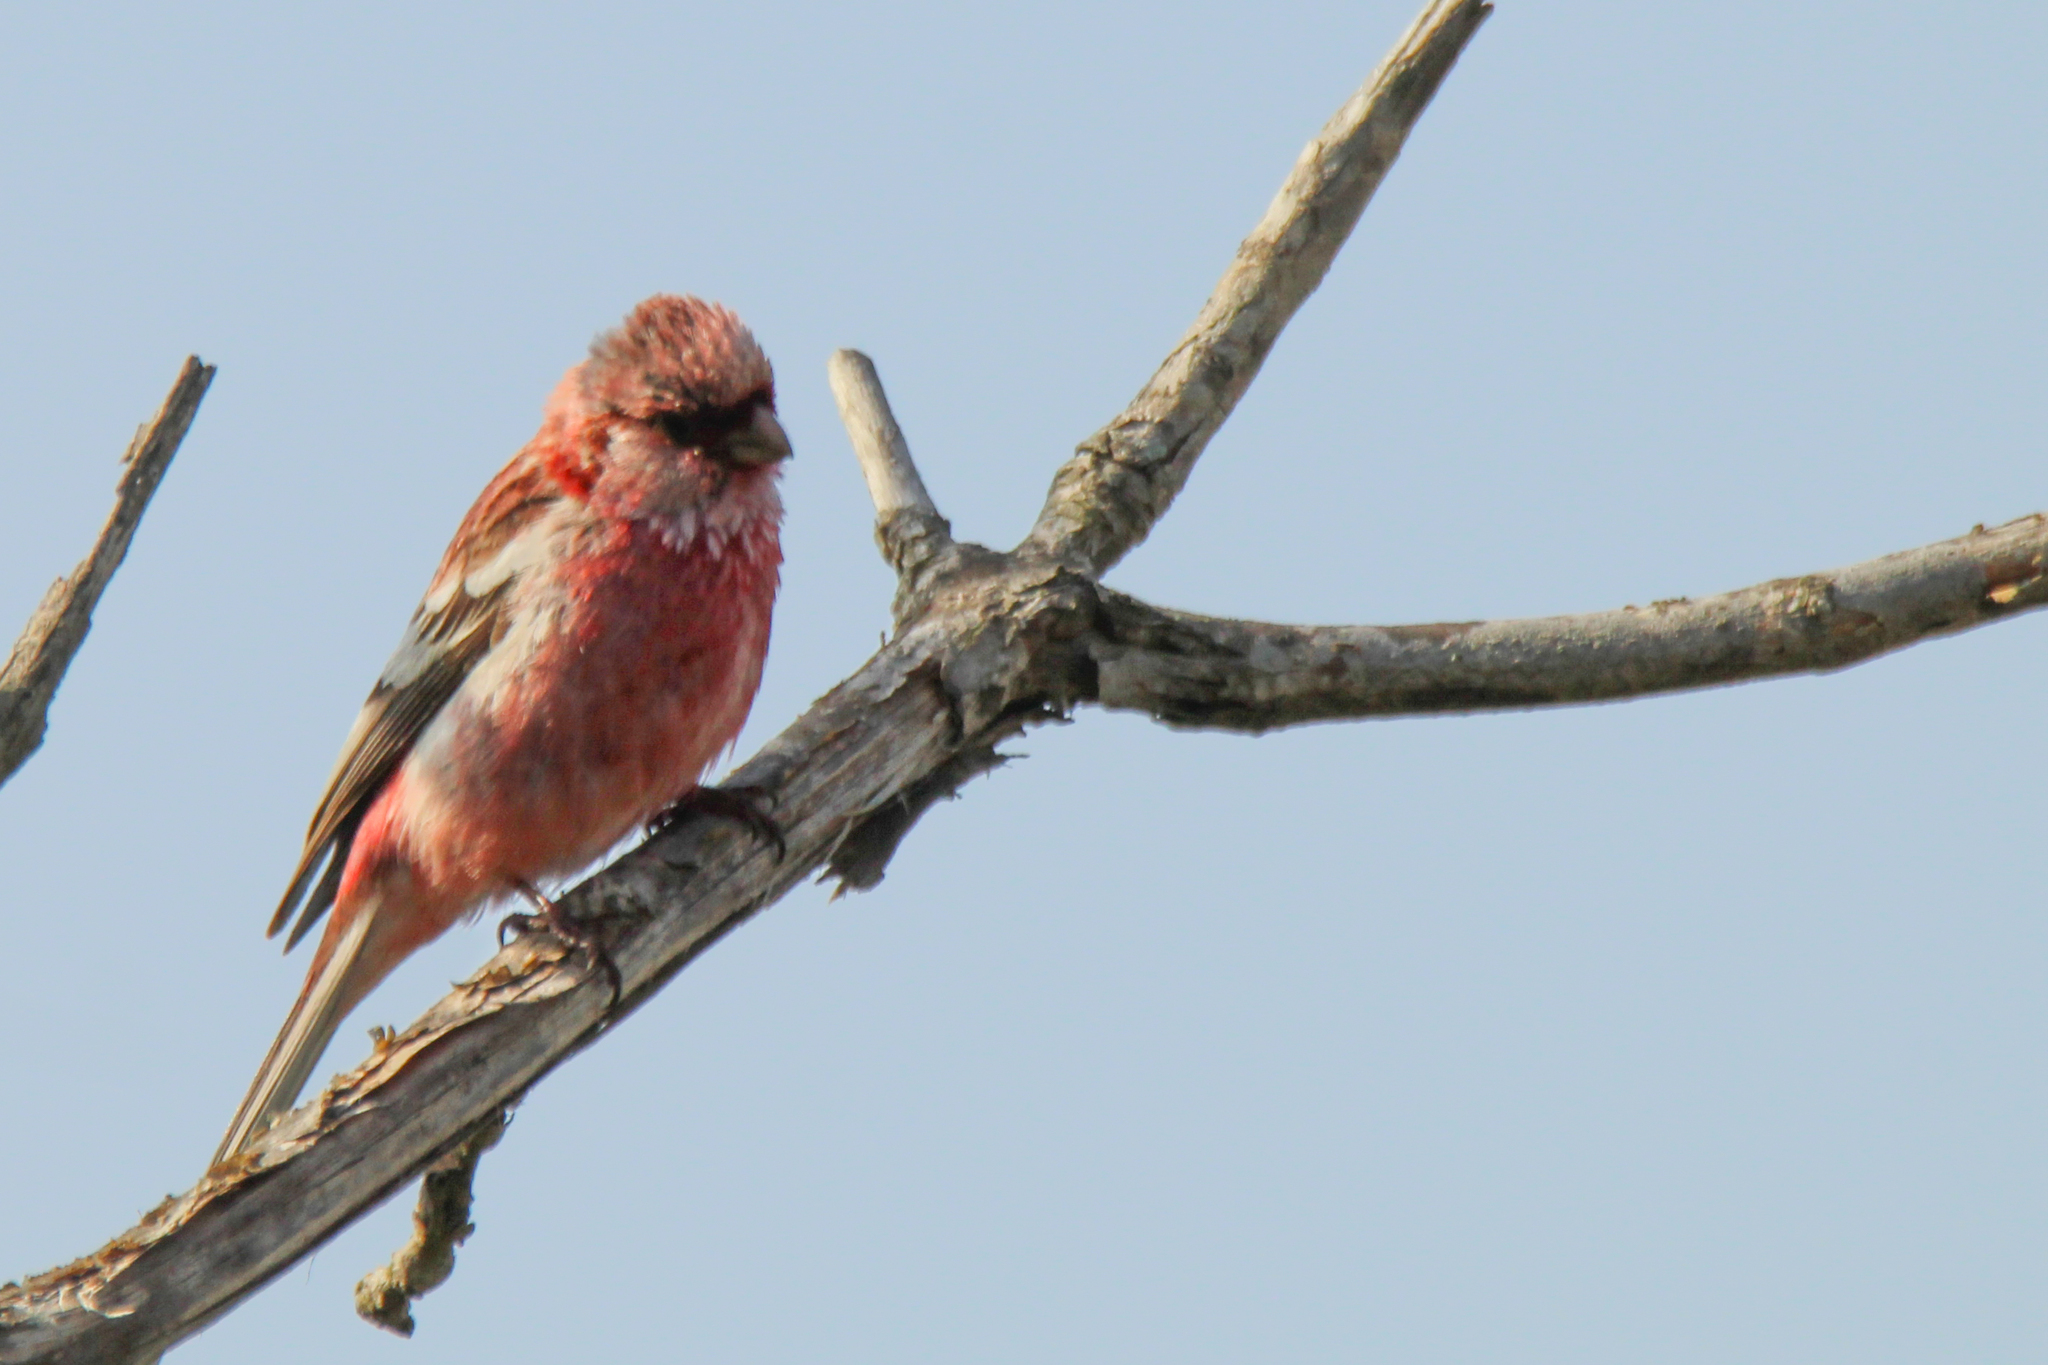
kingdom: Animalia
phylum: Chordata
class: Aves
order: Passeriformes
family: Fringillidae
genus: Carpodacus
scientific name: Carpodacus sibiricus
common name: Long-tailed rosefinch
